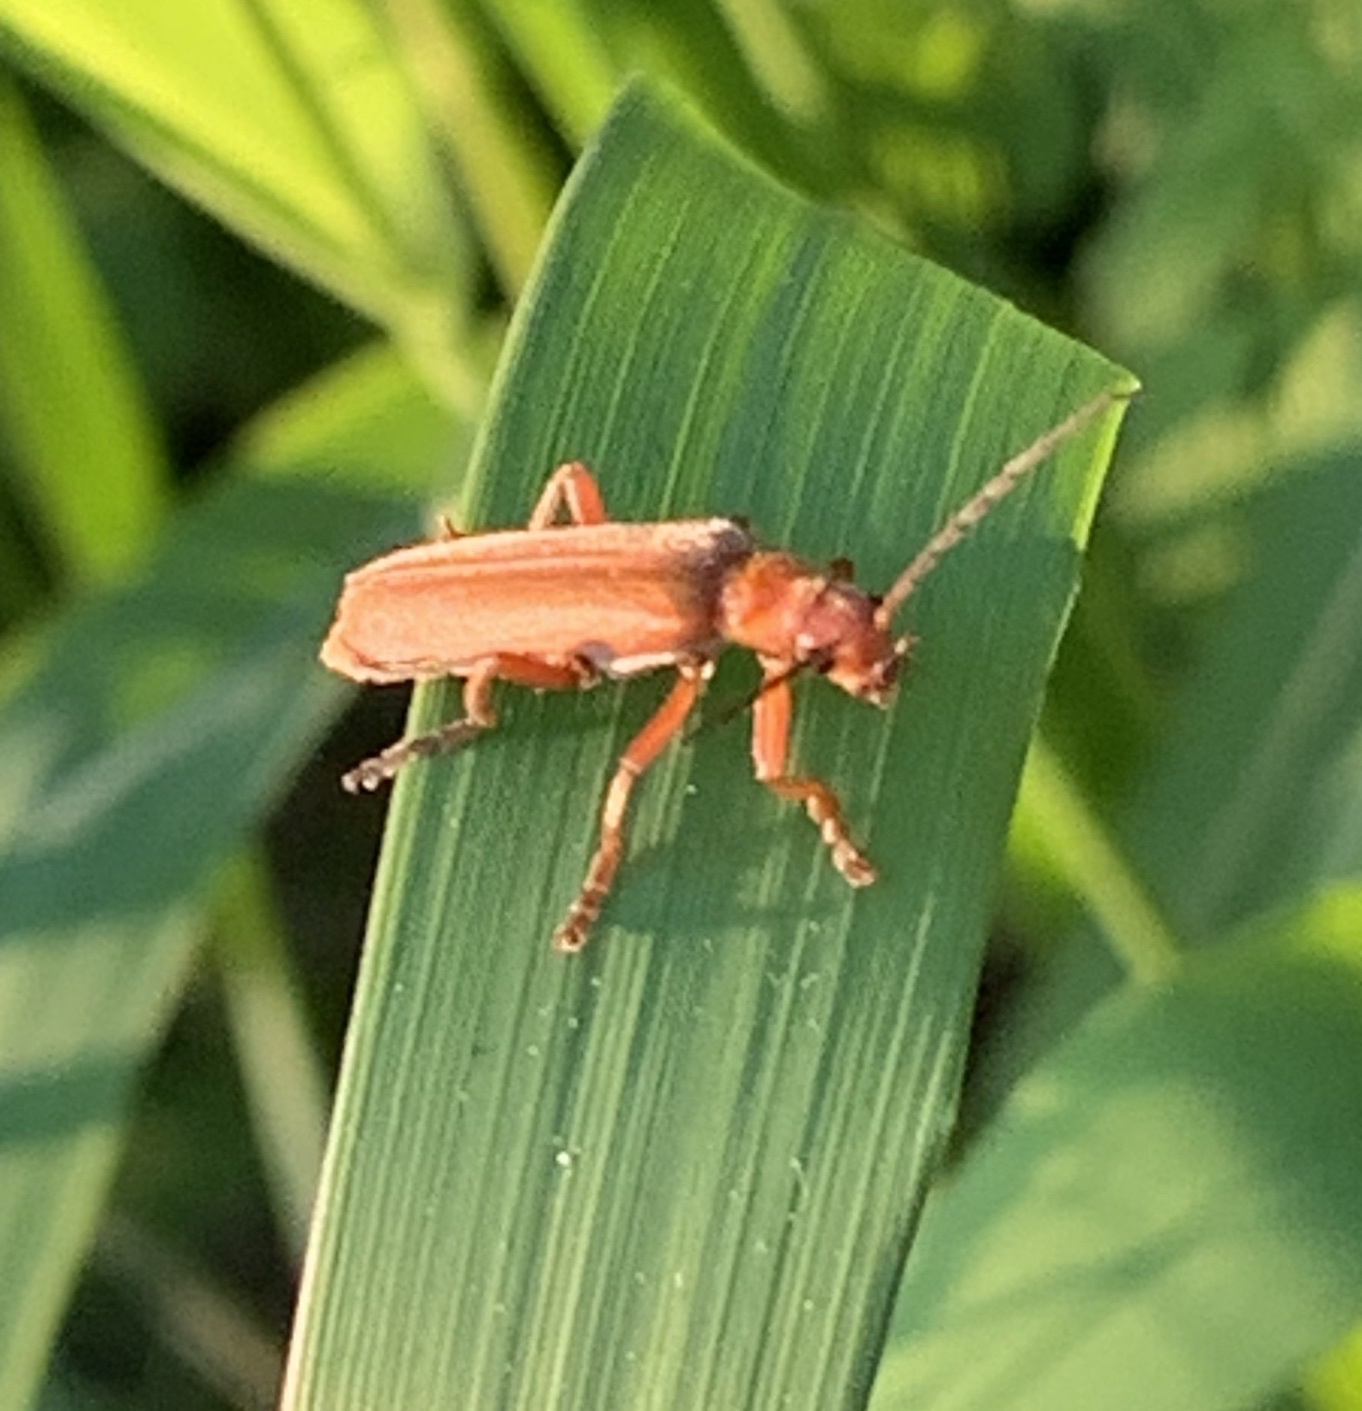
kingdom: Animalia
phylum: Arthropoda
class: Insecta
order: Coleoptera
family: Cantharidae
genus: Cantharis
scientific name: Cantharis rufa
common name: Red-spotted soldier beetle
